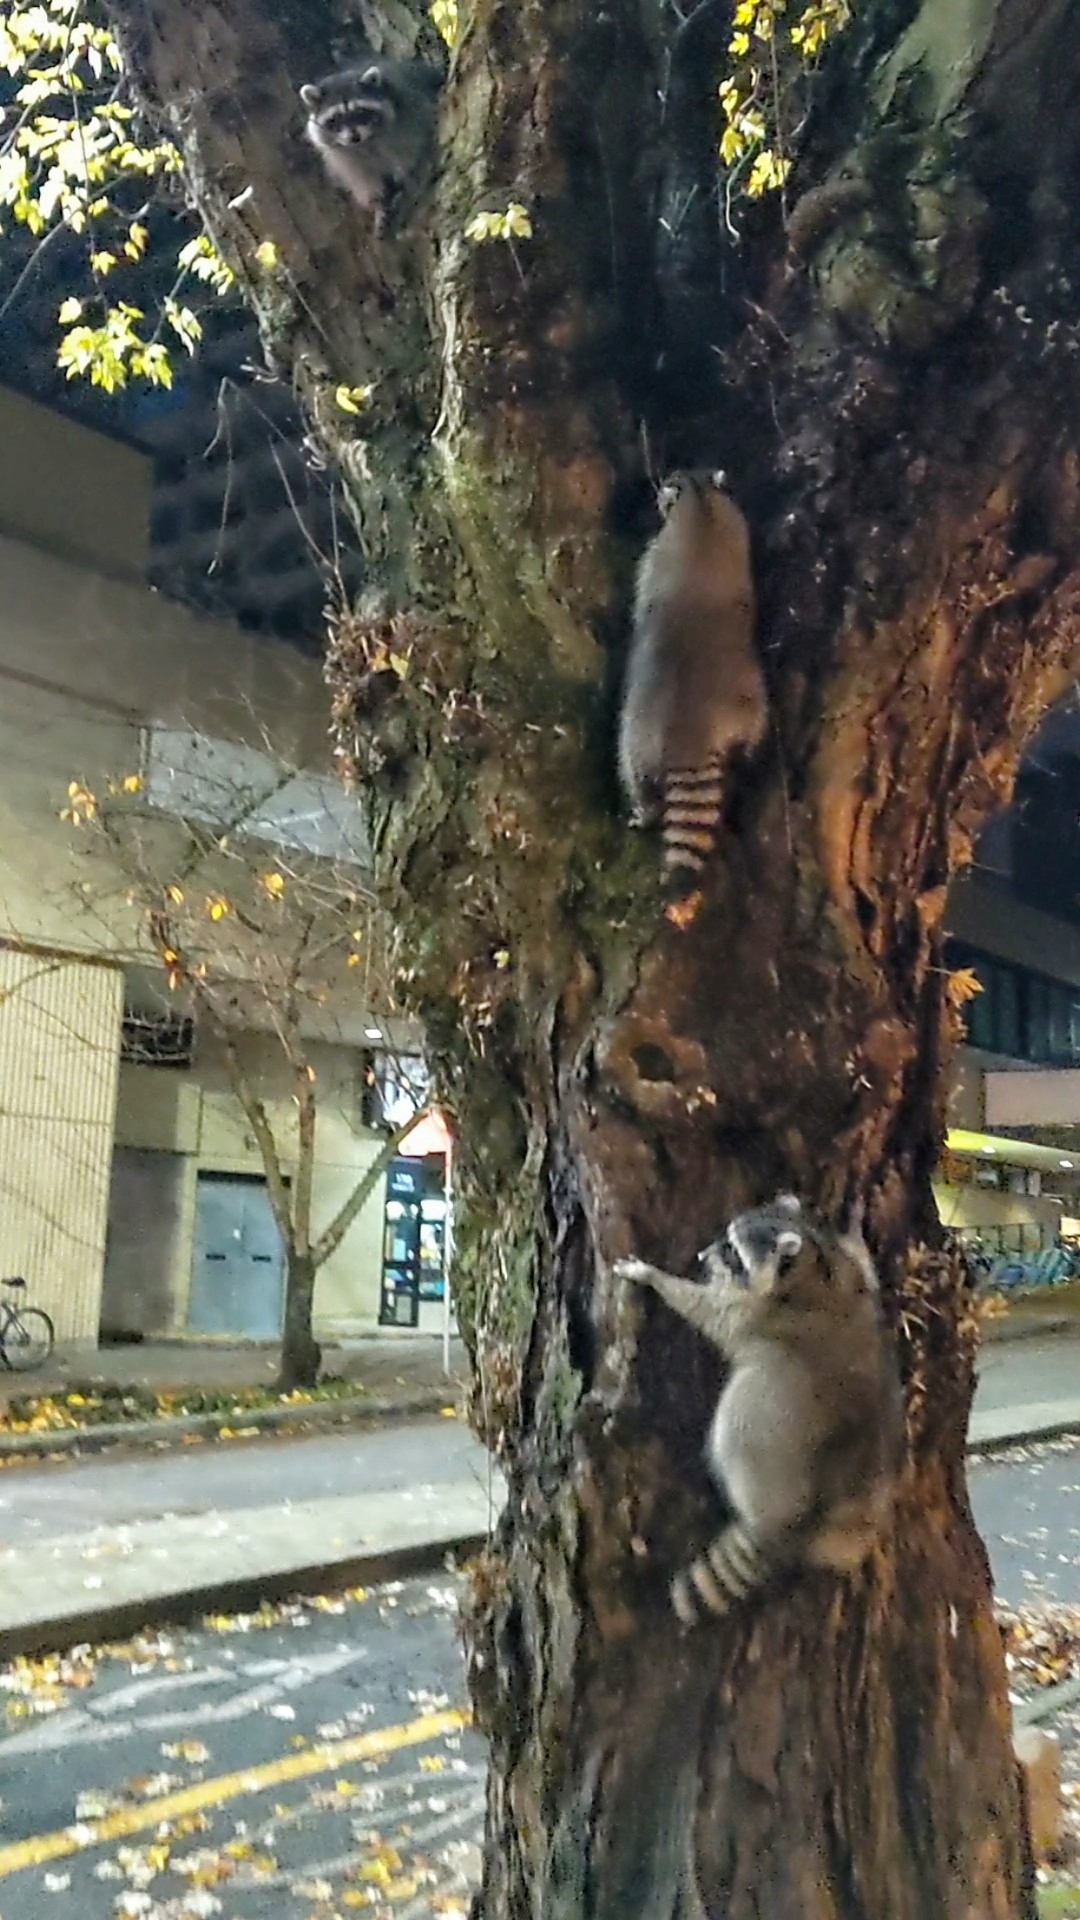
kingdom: Animalia
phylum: Chordata
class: Mammalia
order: Carnivora
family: Procyonidae
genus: Procyon
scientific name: Procyon lotor
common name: Raccoon
